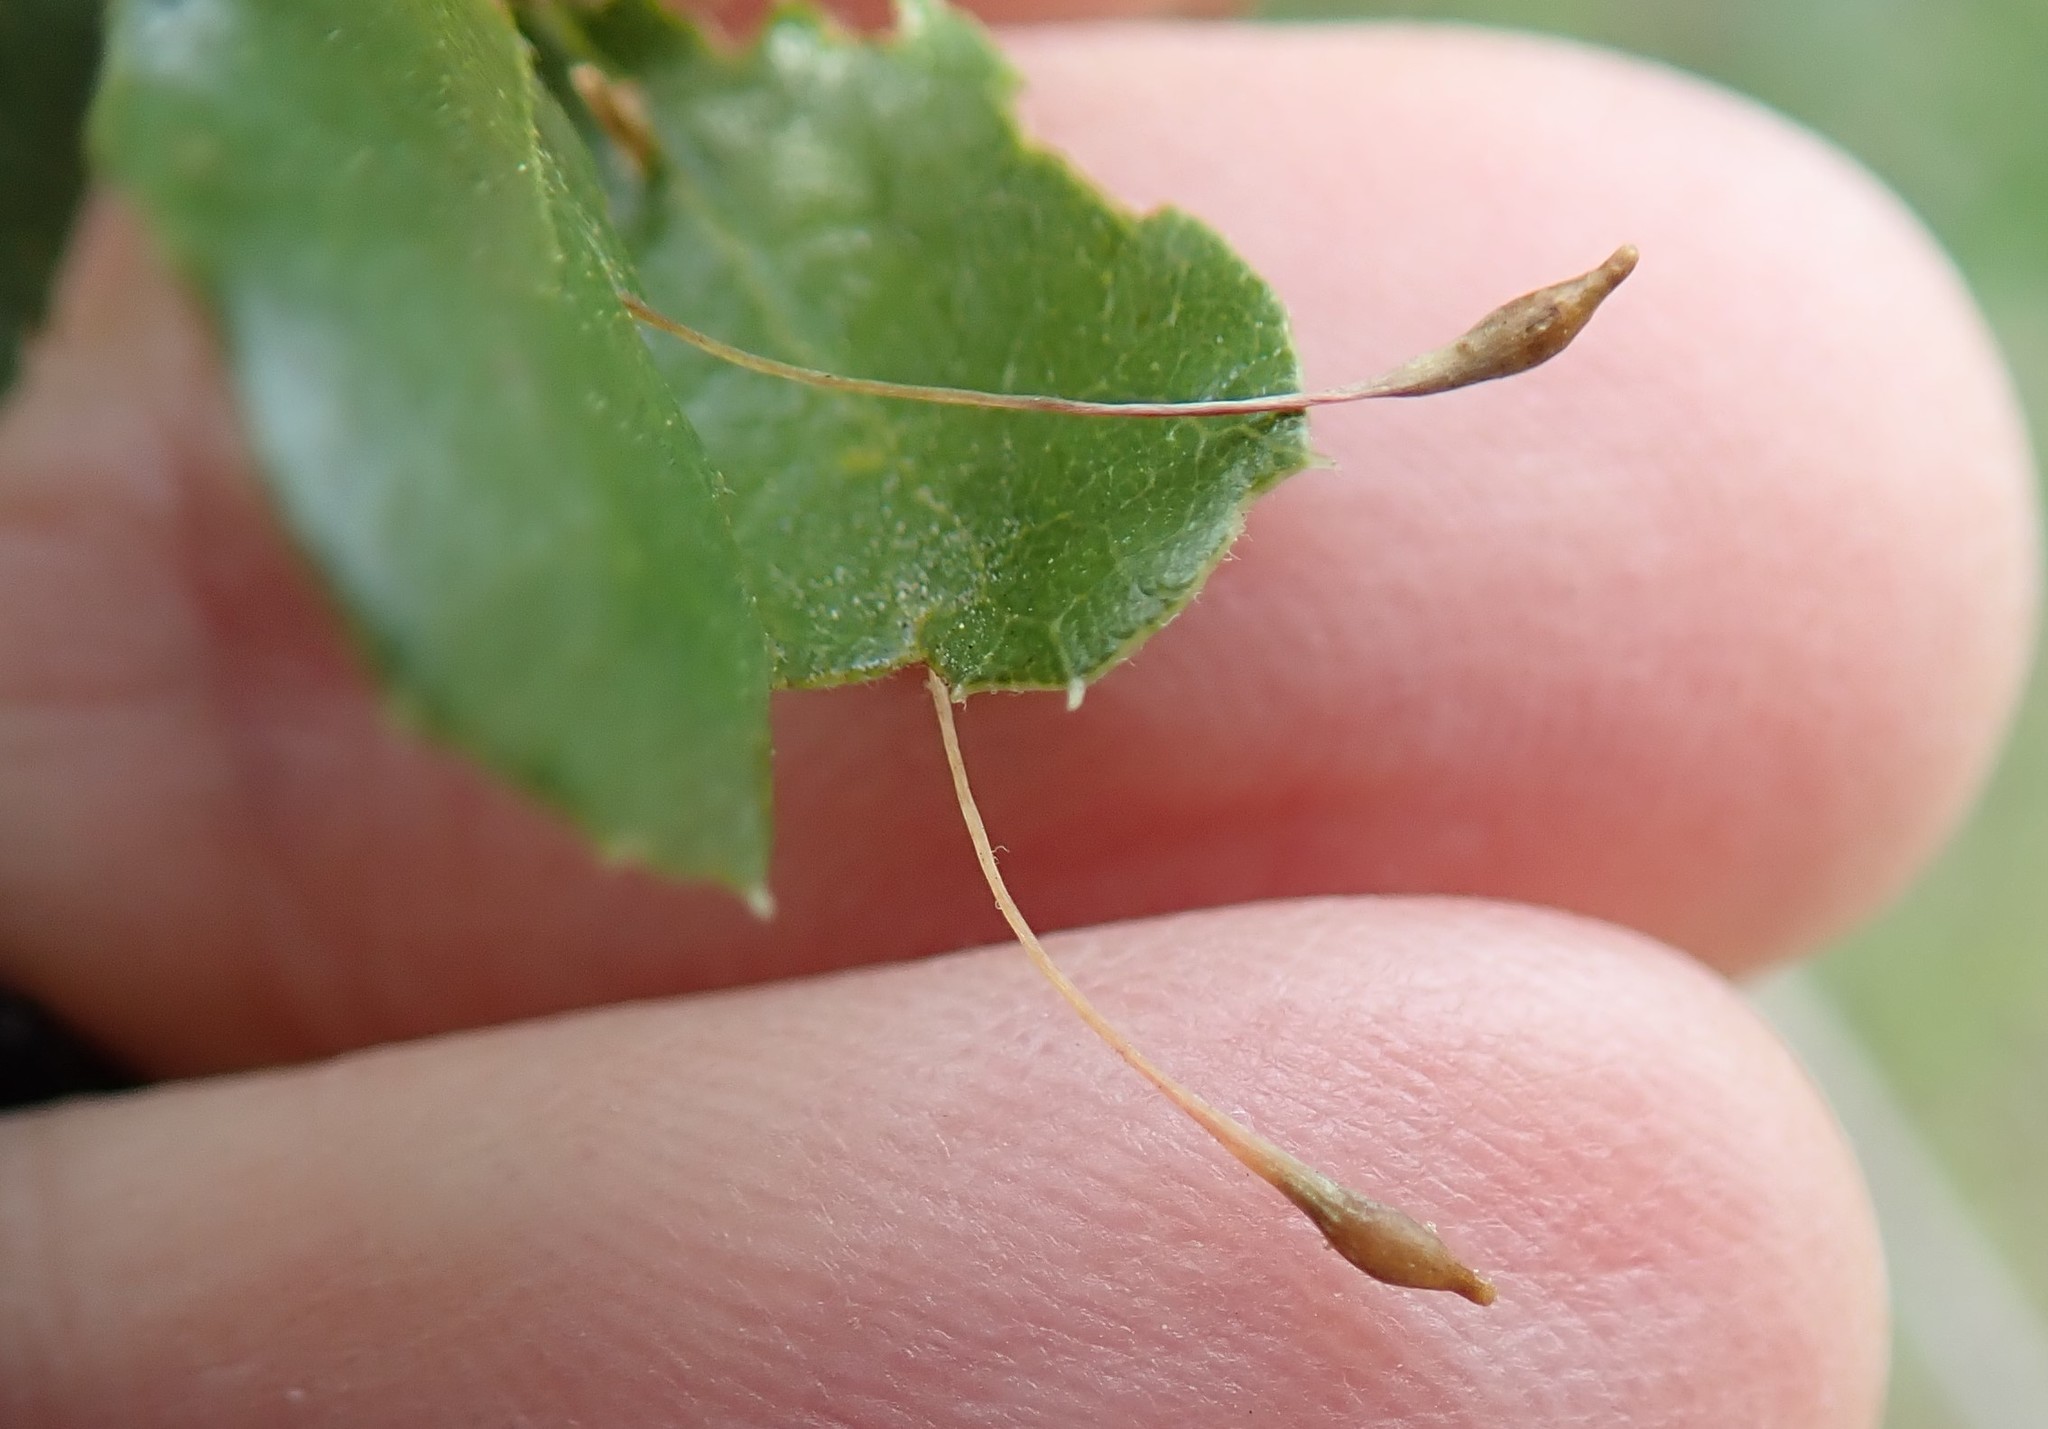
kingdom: Animalia
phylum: Arthropoda
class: Insecta
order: Hymenoptera
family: Cynipidae
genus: Andricus
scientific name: Andricus
